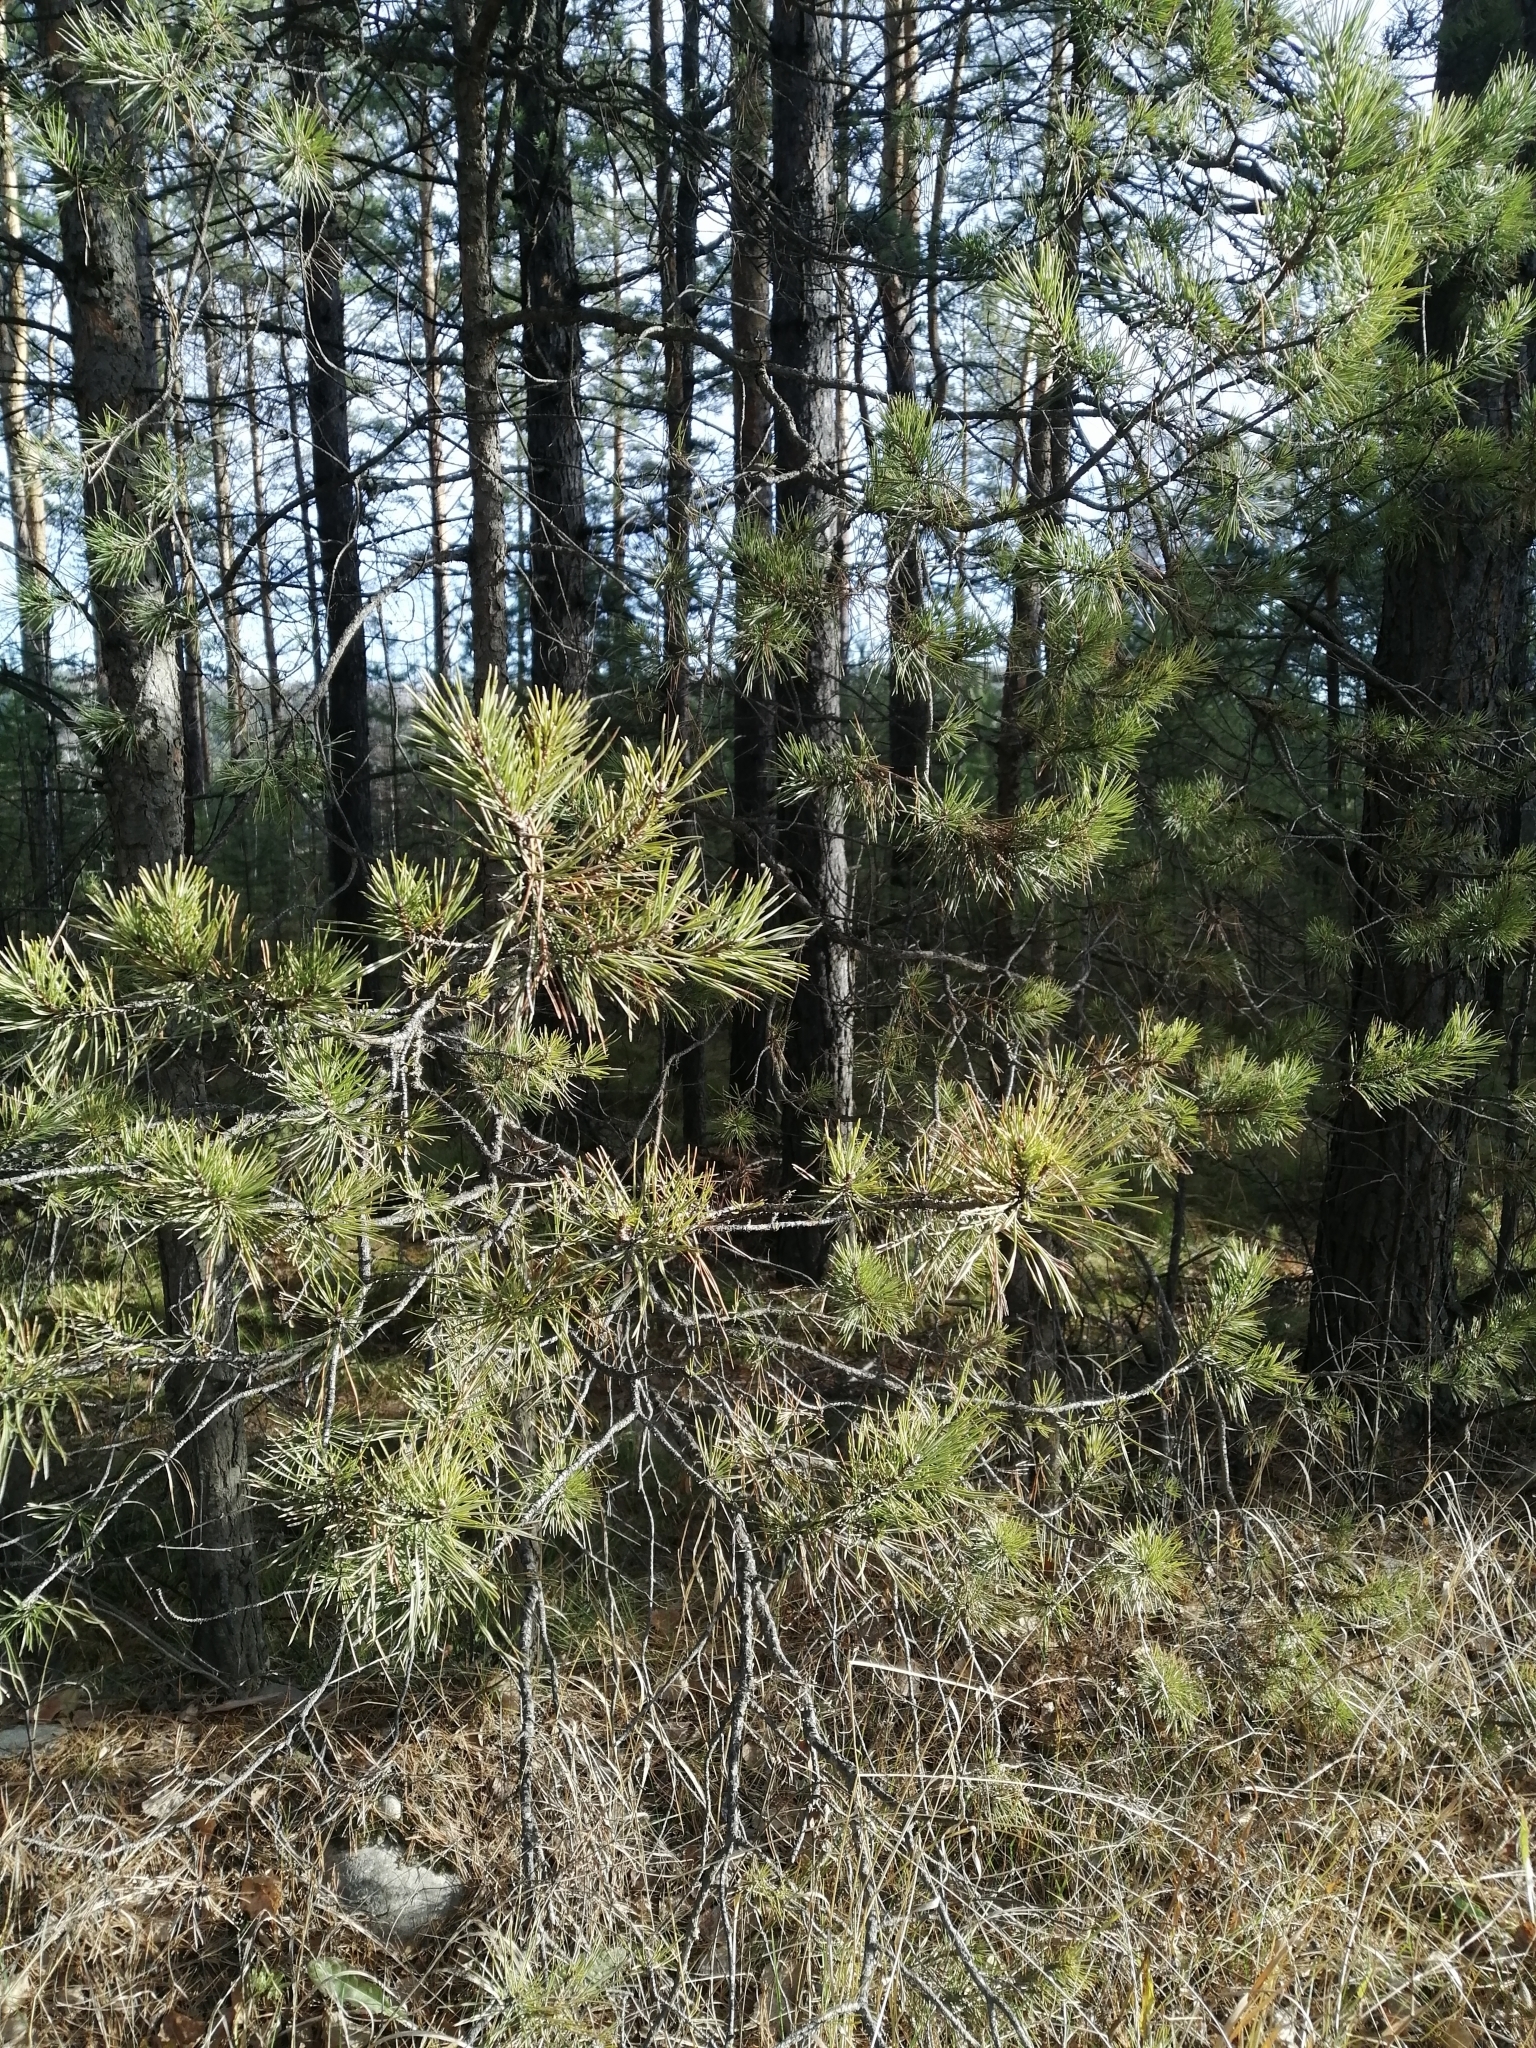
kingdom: Plantae
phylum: Tracheophyta
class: Pinopsida
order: Pinales
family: Pinaceae
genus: Pinus
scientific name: Pinus sylvestris
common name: Scots pine
